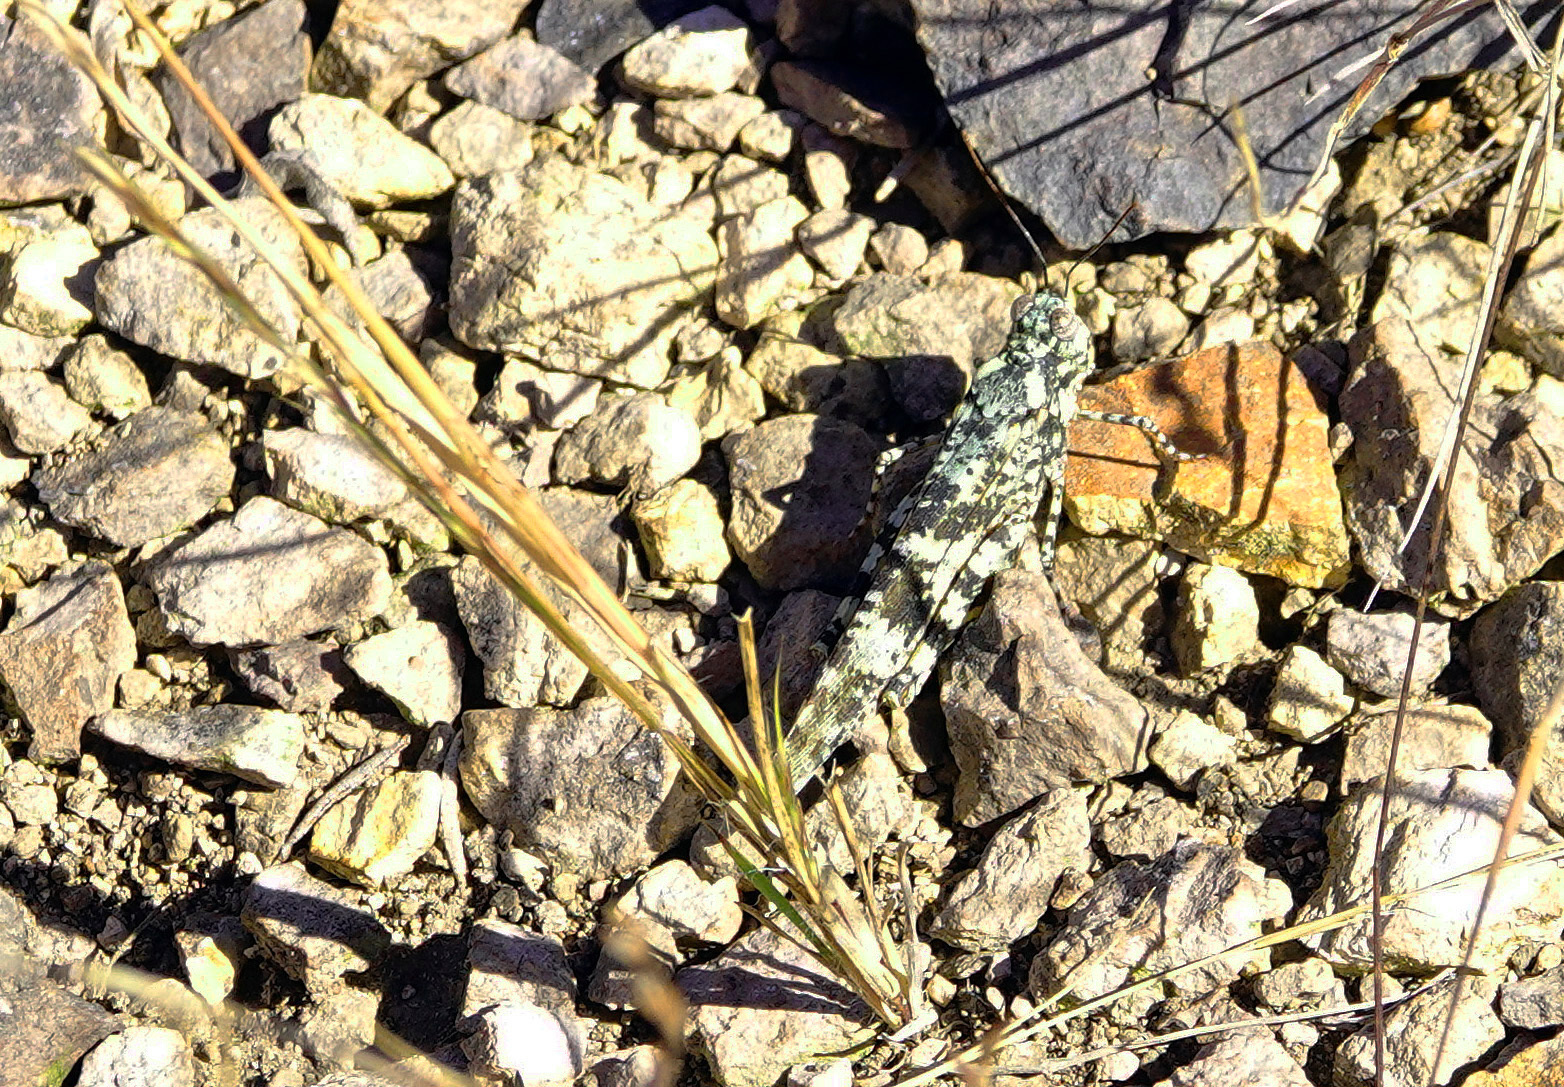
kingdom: Animalia
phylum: Arthropoda
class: Insecta
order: Orthoptera
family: Acrididae
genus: Trimerotropis
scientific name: Trimerotropis saxatilis
